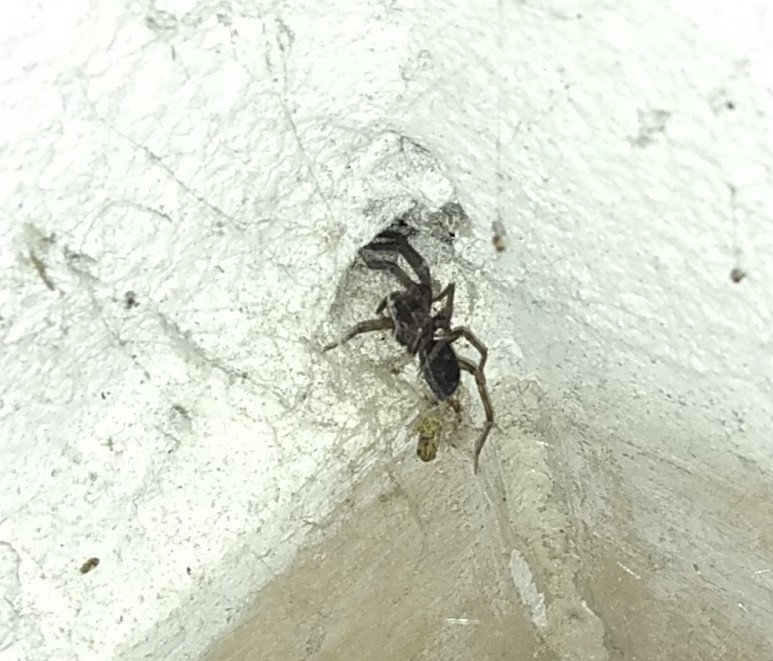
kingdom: Animalia
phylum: Arthropoda
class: Arachnida
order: Araneae
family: Filistatidae
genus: Kukulcania
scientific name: Kukulcania hibernalis
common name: Crevice weaver
